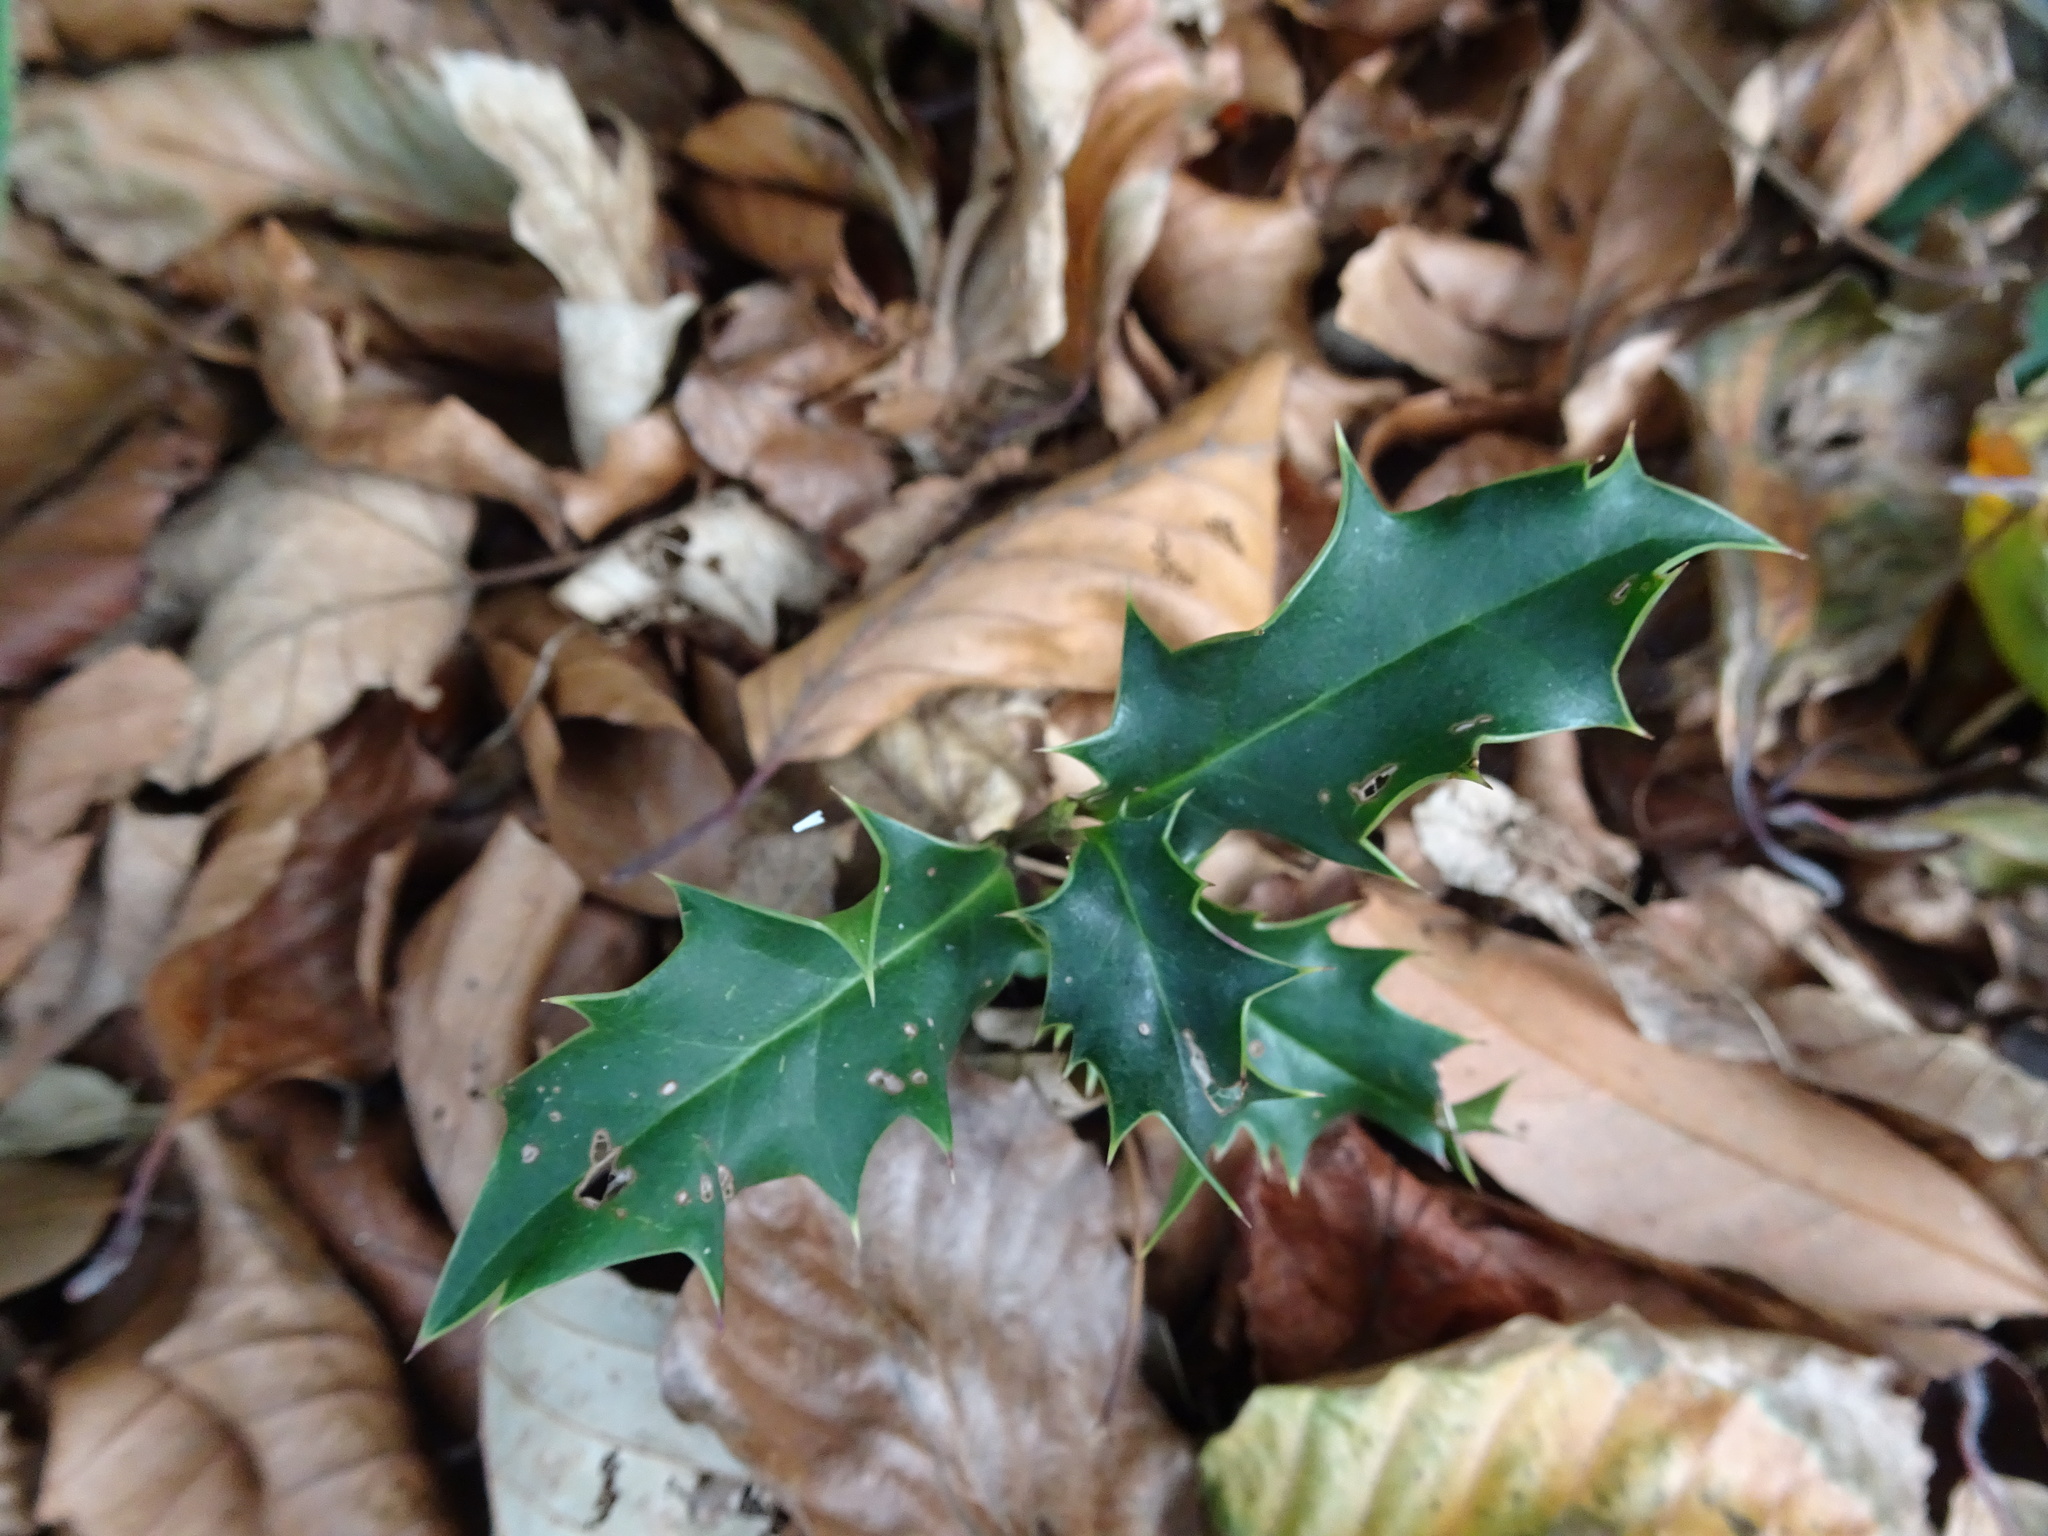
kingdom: Plantae
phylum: Tracheophyta
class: Magnoliopsida
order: Aquifoliales
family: Aquifoliaceae
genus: Ilex
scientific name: Ilex aquifolium
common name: English holly
